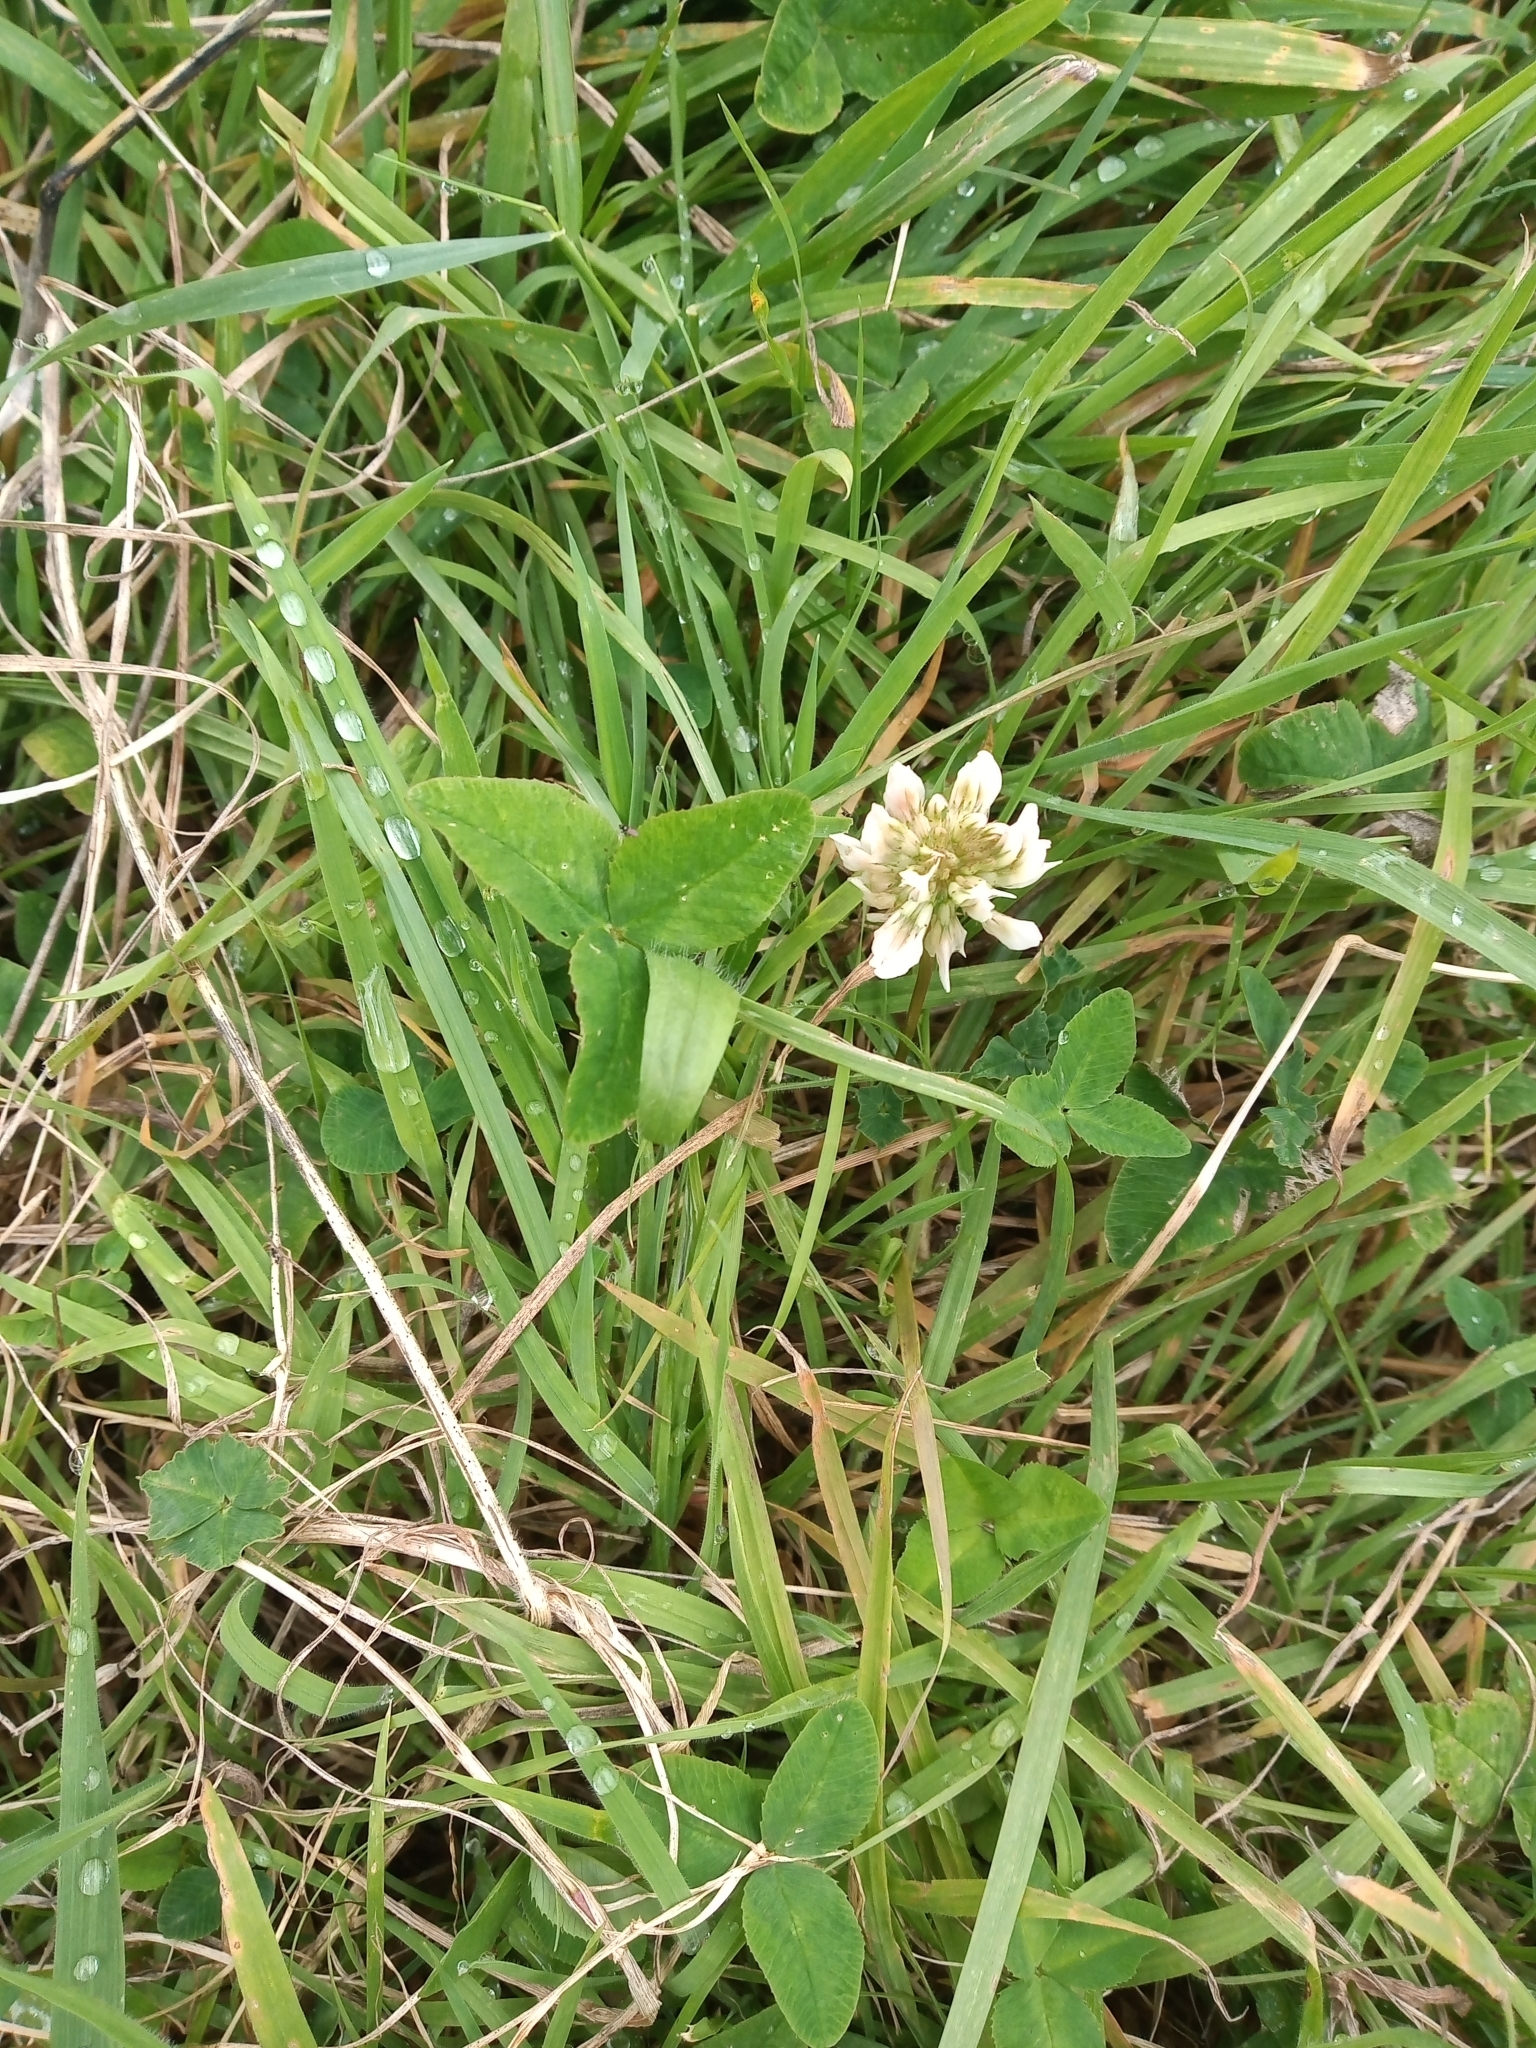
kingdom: Plantae
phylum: Tracheophyta
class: Magnoliopsida
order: Fabales
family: Fabaceae
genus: Trifolium
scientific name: Trifolium repens
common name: White clover
